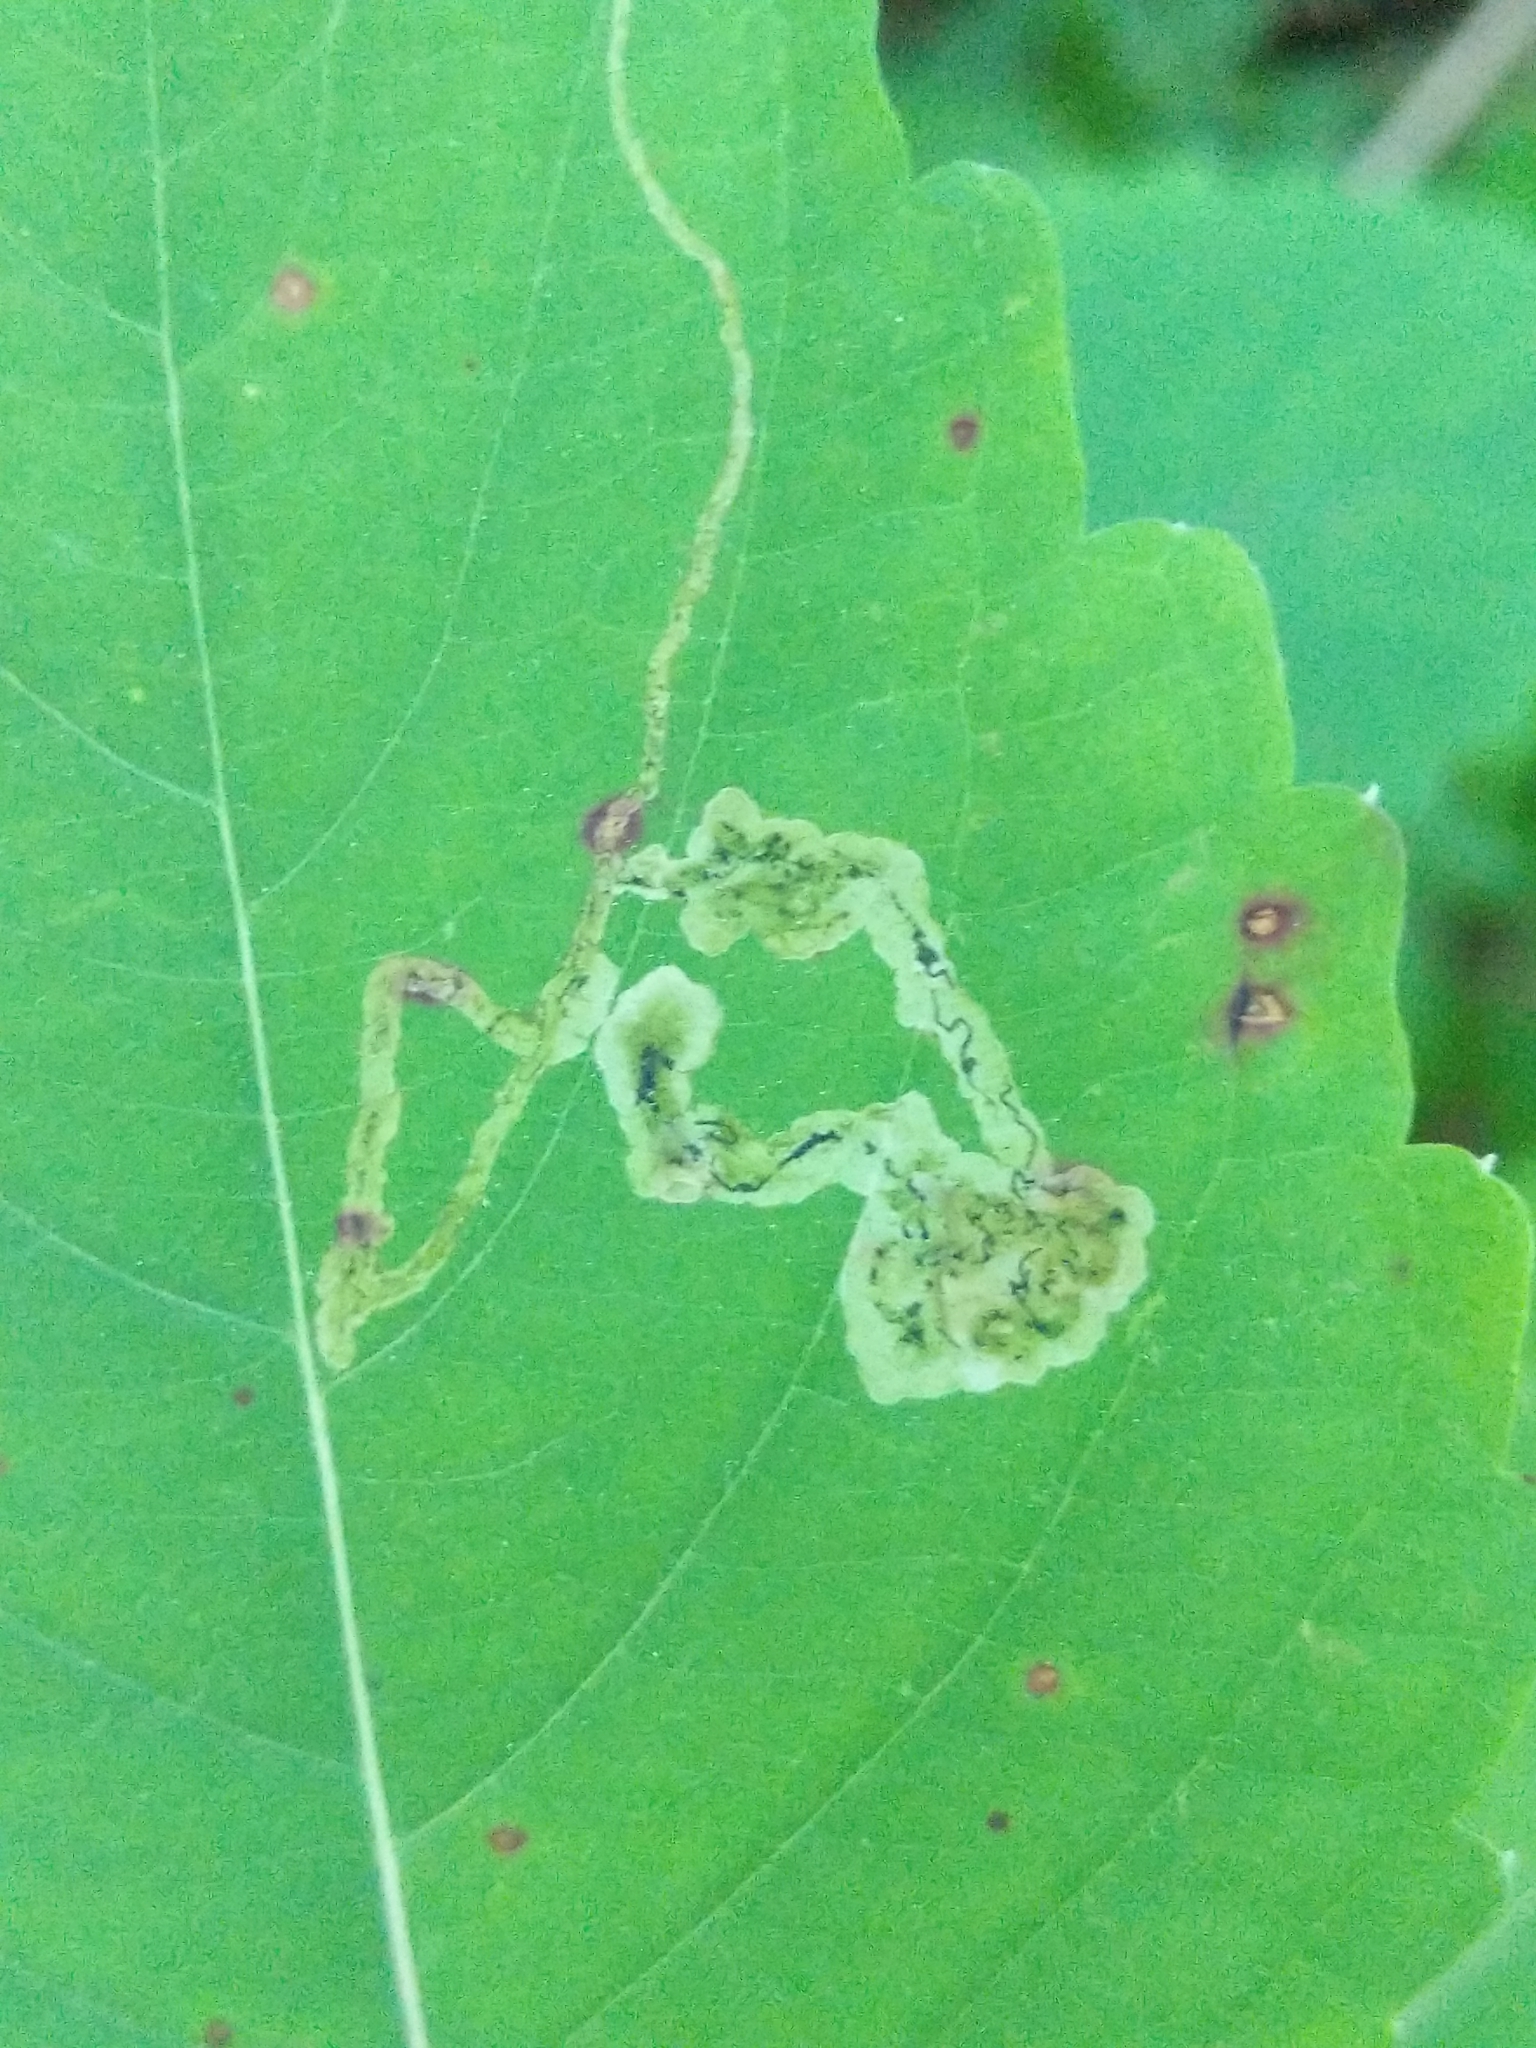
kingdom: Animalia
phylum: Arthropoda
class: Insecta
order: Diptera
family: Agromyzidae
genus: Phytoliriomyza
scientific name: Phytoliriomyza melampyga
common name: Jewelweed leaf-miner fly
